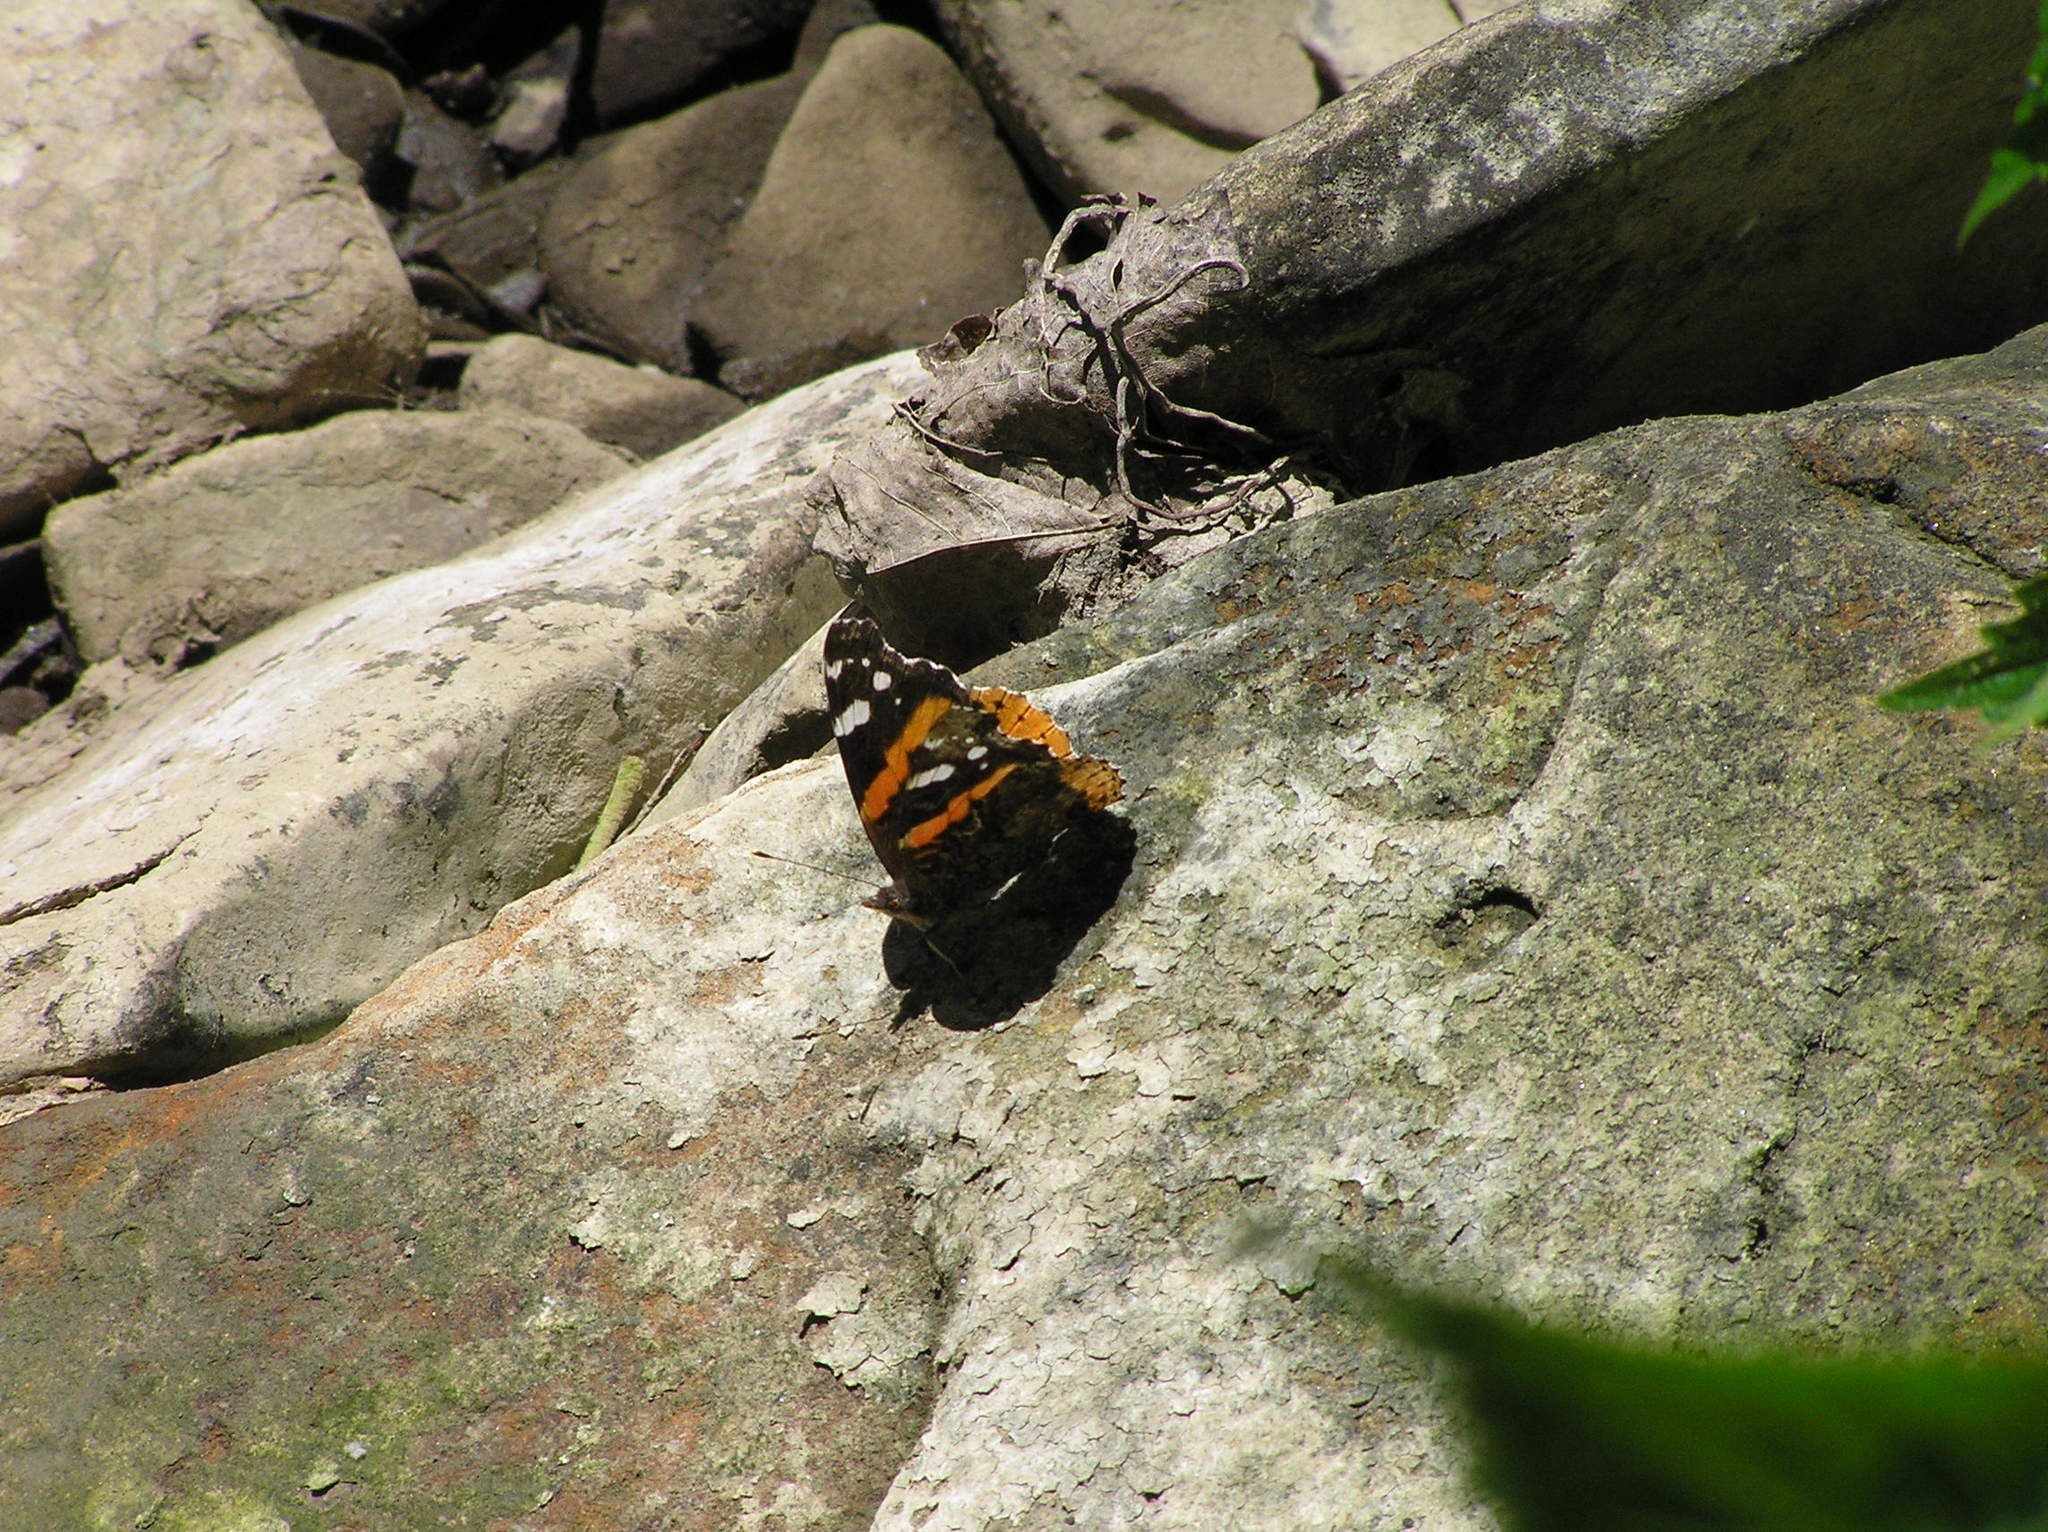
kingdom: Animalia
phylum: Arthropoda
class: Insecta
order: Lepidoptera
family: Nymphalidae
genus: Vanessa
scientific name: Vanessa atalanta
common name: Red admiral
